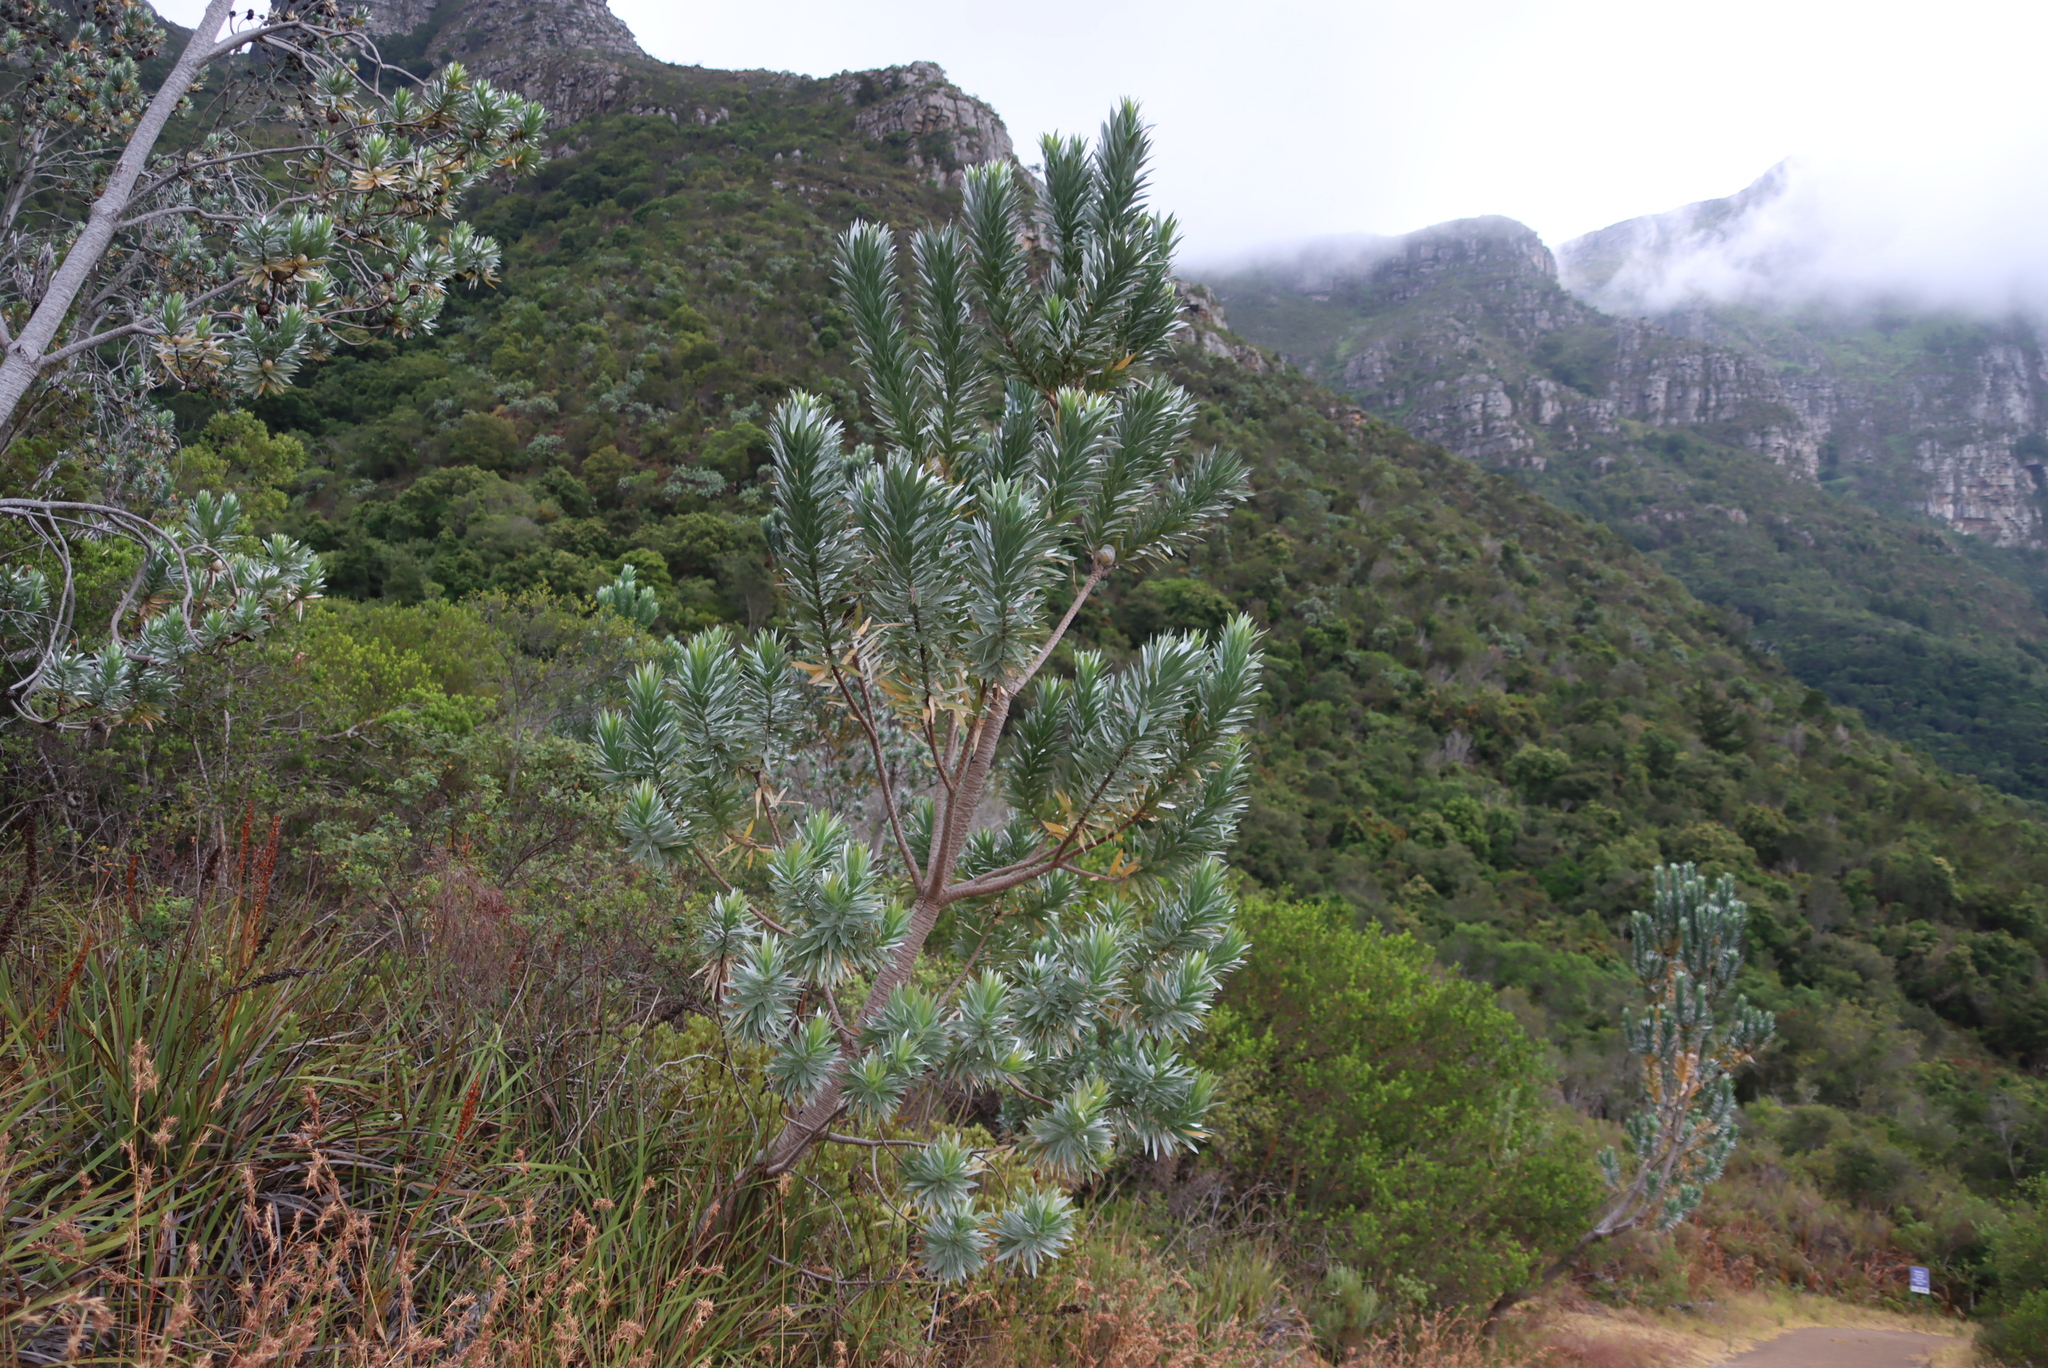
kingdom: Plantae
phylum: Tracheophyta
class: Magnoliopsida
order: Proteales
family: Proteaceae
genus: Leucadendron
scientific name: Leucadendron argenteum
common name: Cape silver tree
